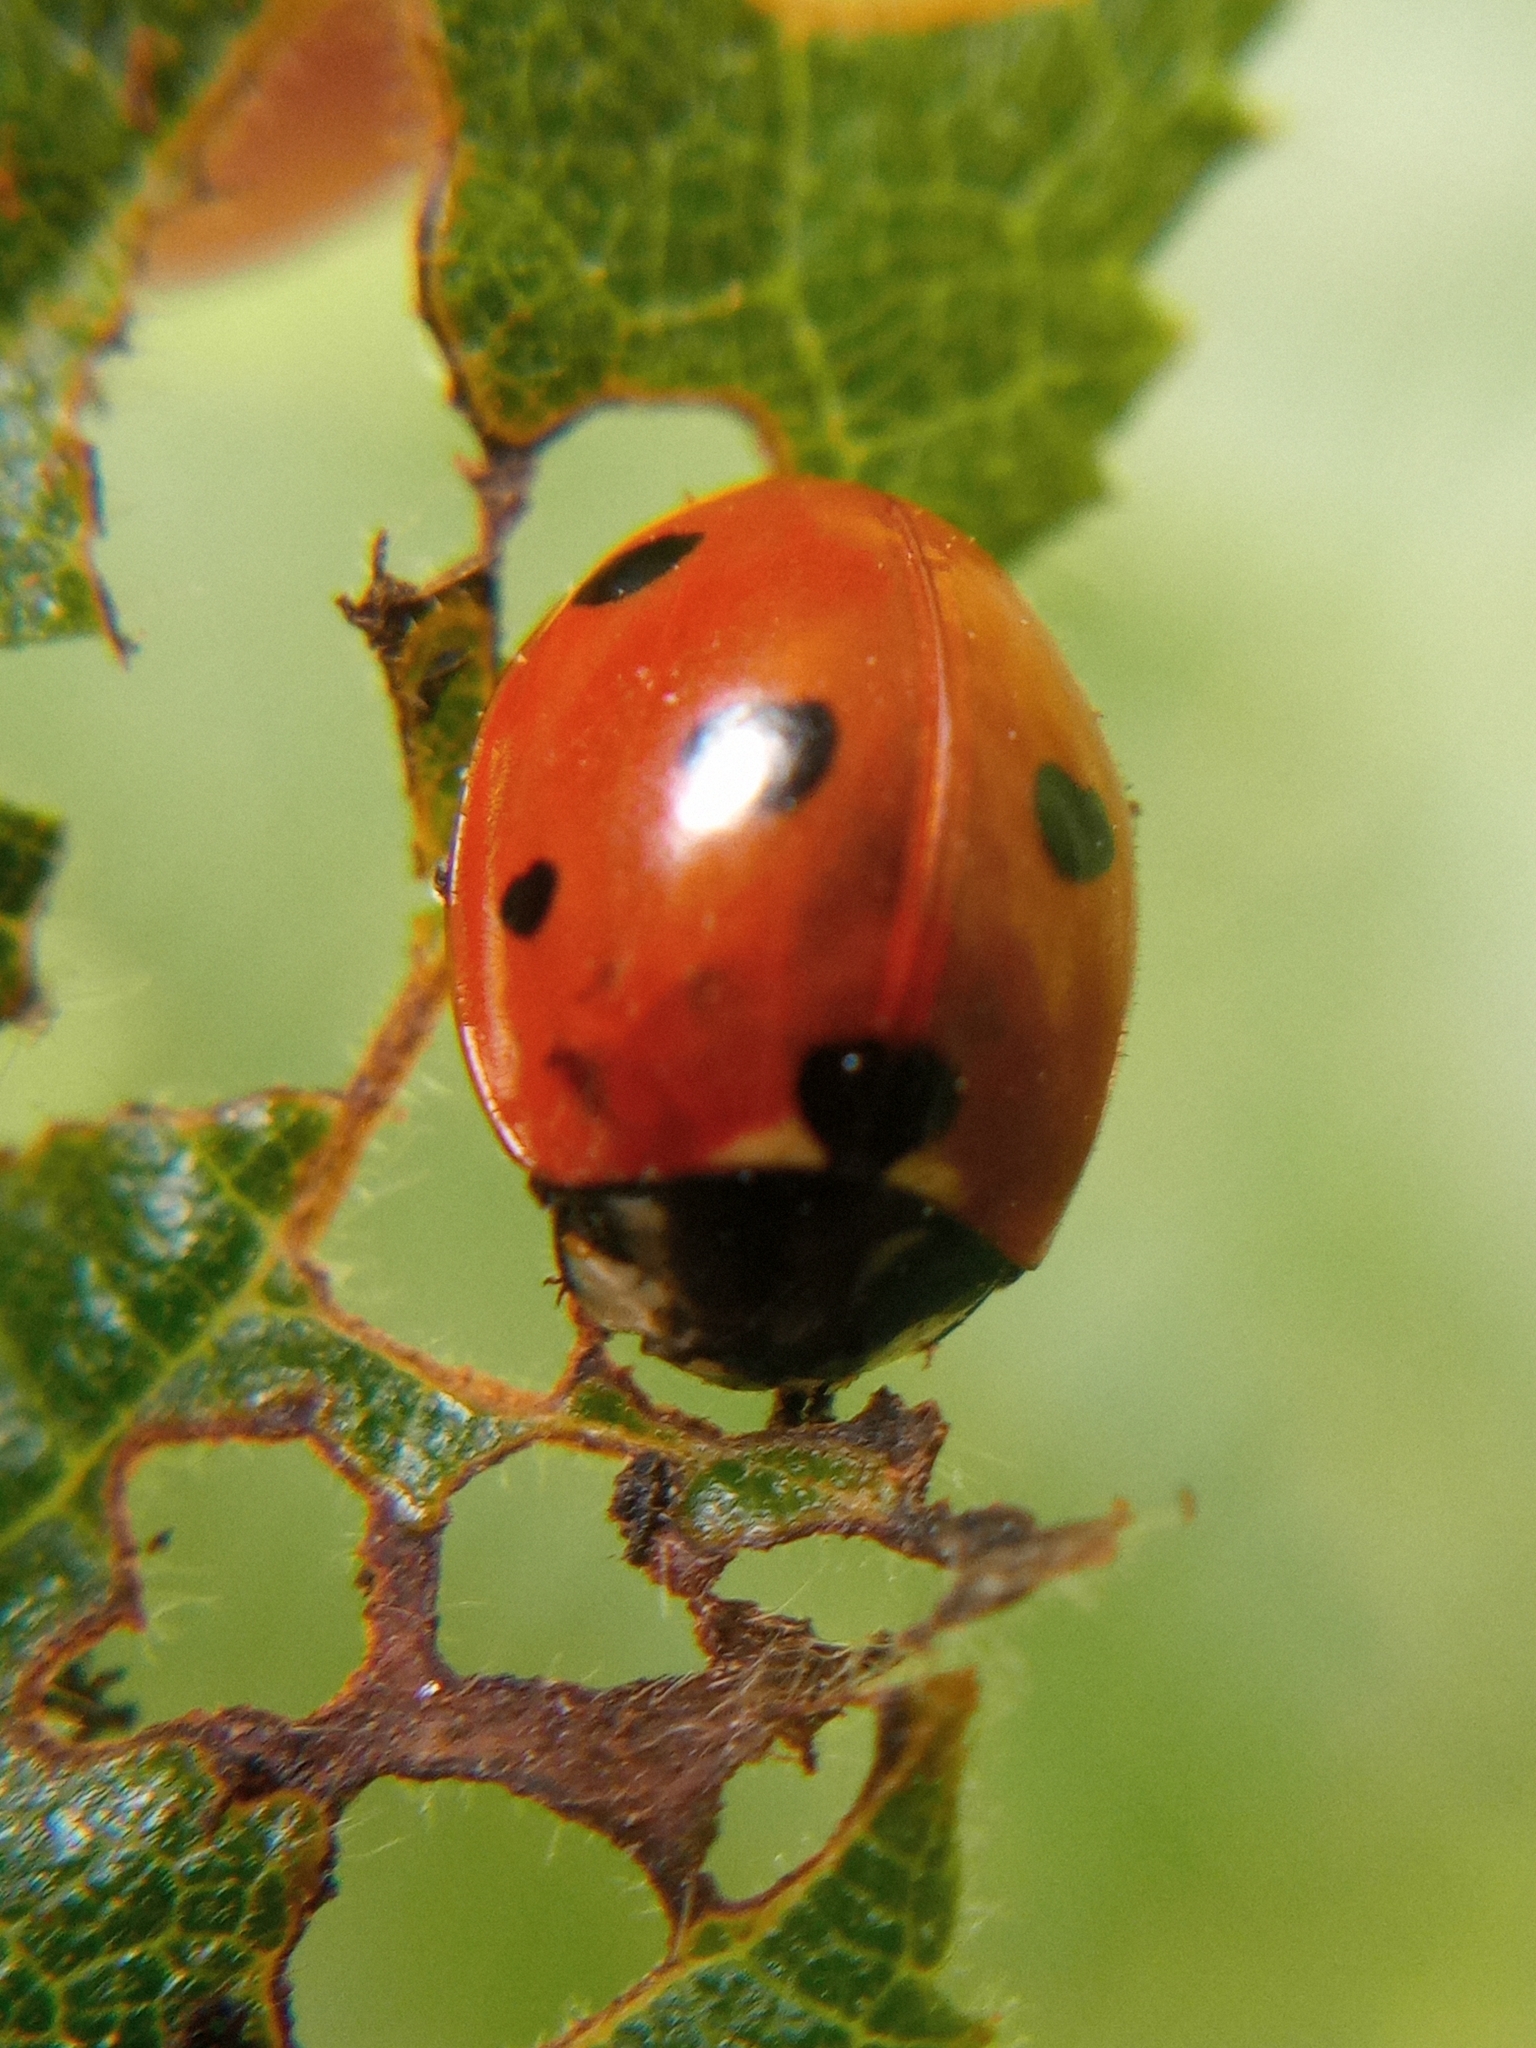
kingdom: Animalia
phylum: Arthropoda
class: Insecta
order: Coleoptera
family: Coccinellidae
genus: Coccinella
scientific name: Coccinella septempunctata
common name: Sevenspotted lady beetle
